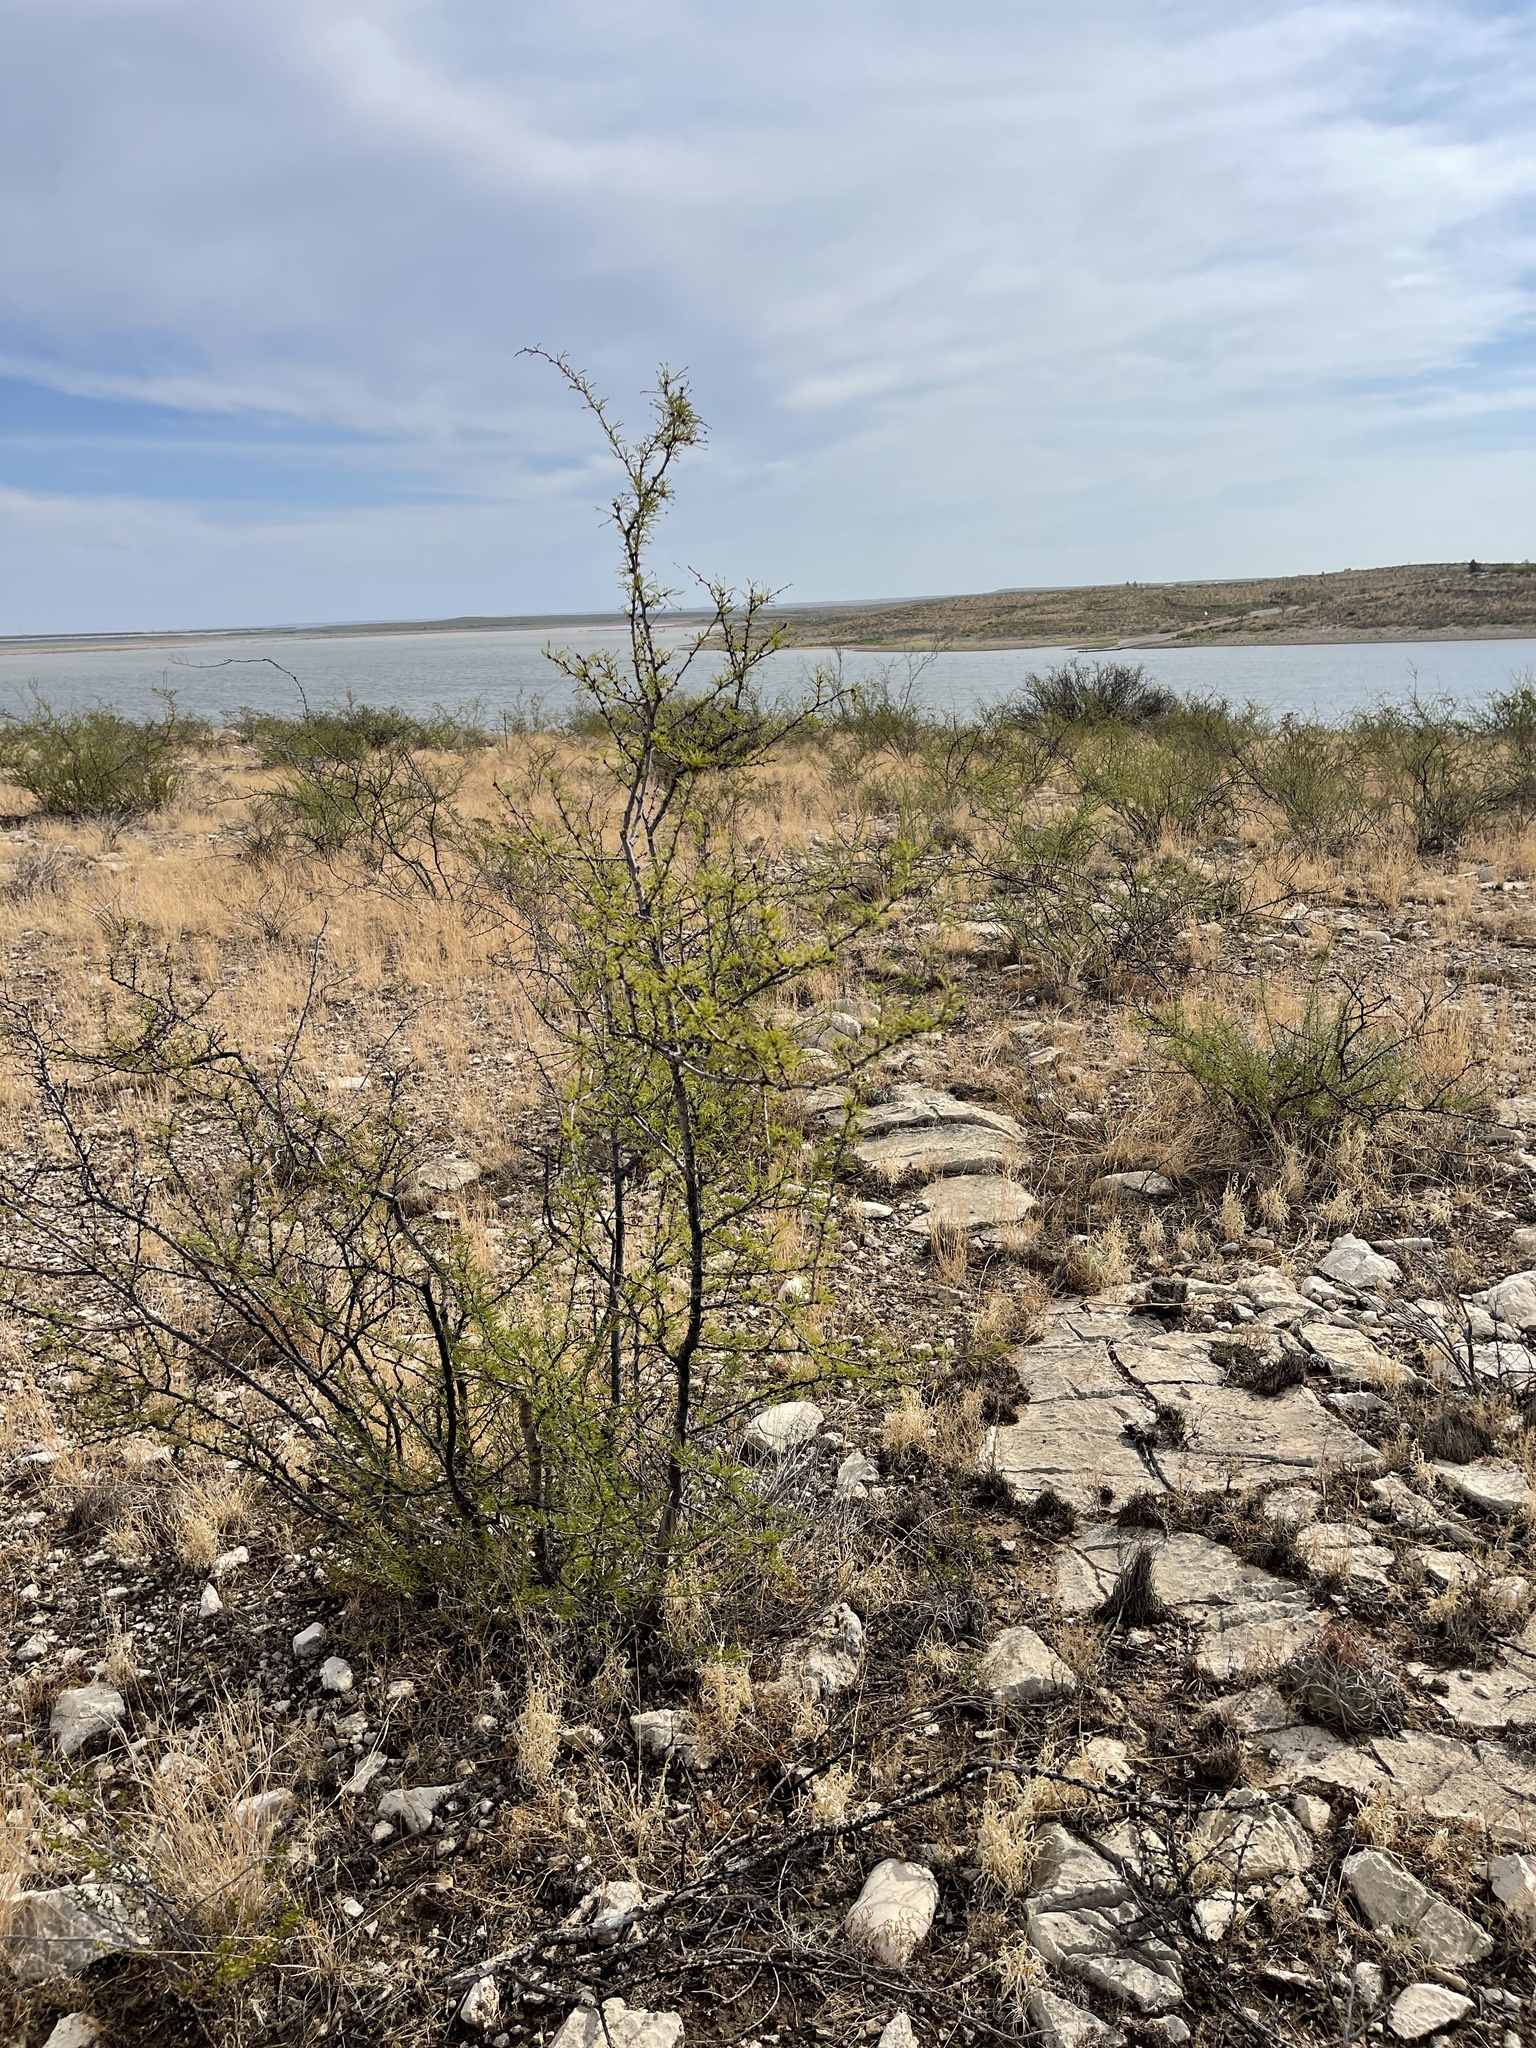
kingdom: Plantae
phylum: Tracheophyta
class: Magnoliopsida
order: Fabales
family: Fabaceae
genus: Vachellia
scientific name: Vachellia vernicosa
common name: Viscid acacia
